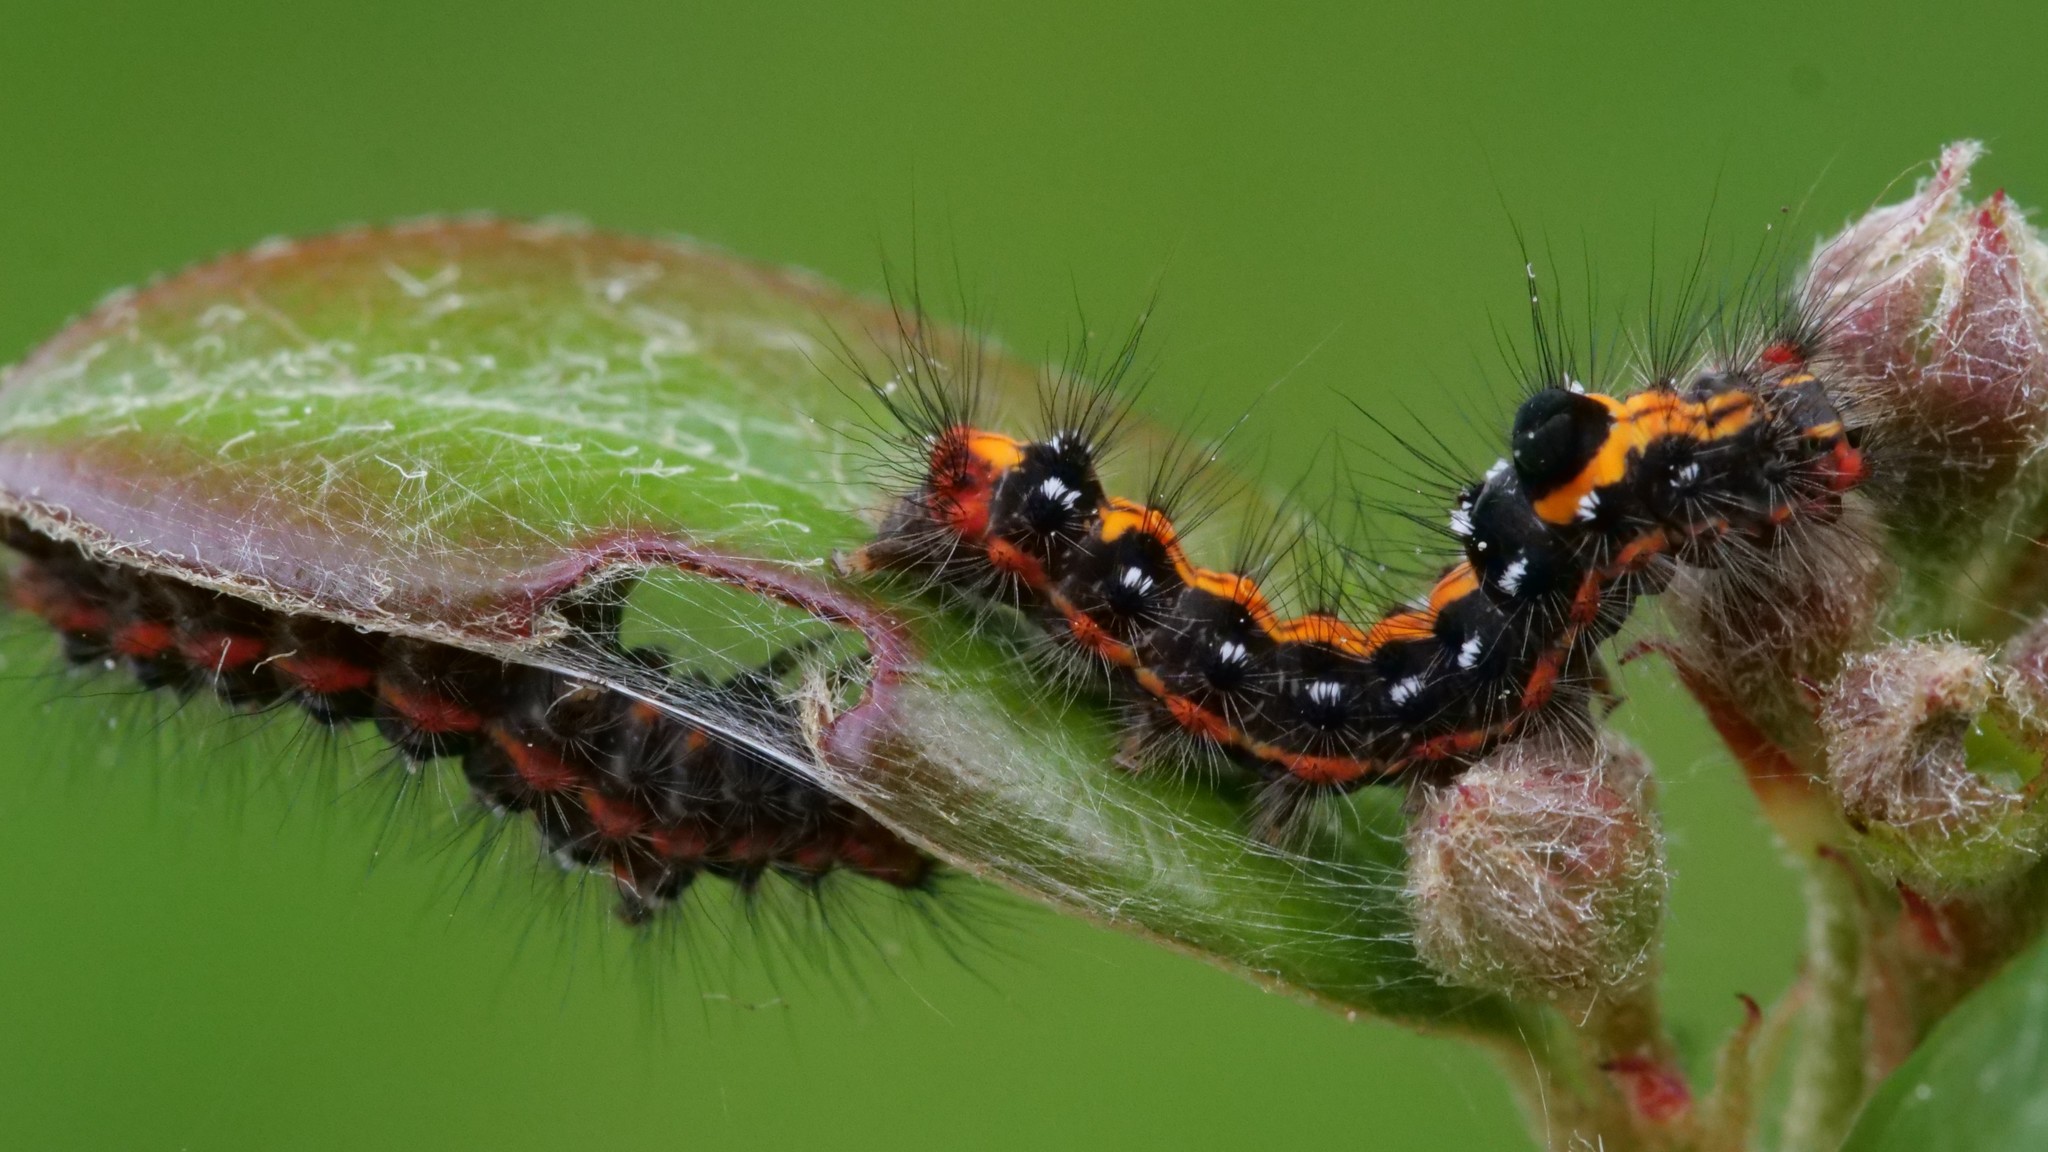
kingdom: Animalia
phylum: Arthropoda
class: Insecta
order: Lepidoptera
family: Erebidae
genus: Sphrageidus
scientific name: Sphrageidus similis
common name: Yellow-tail
